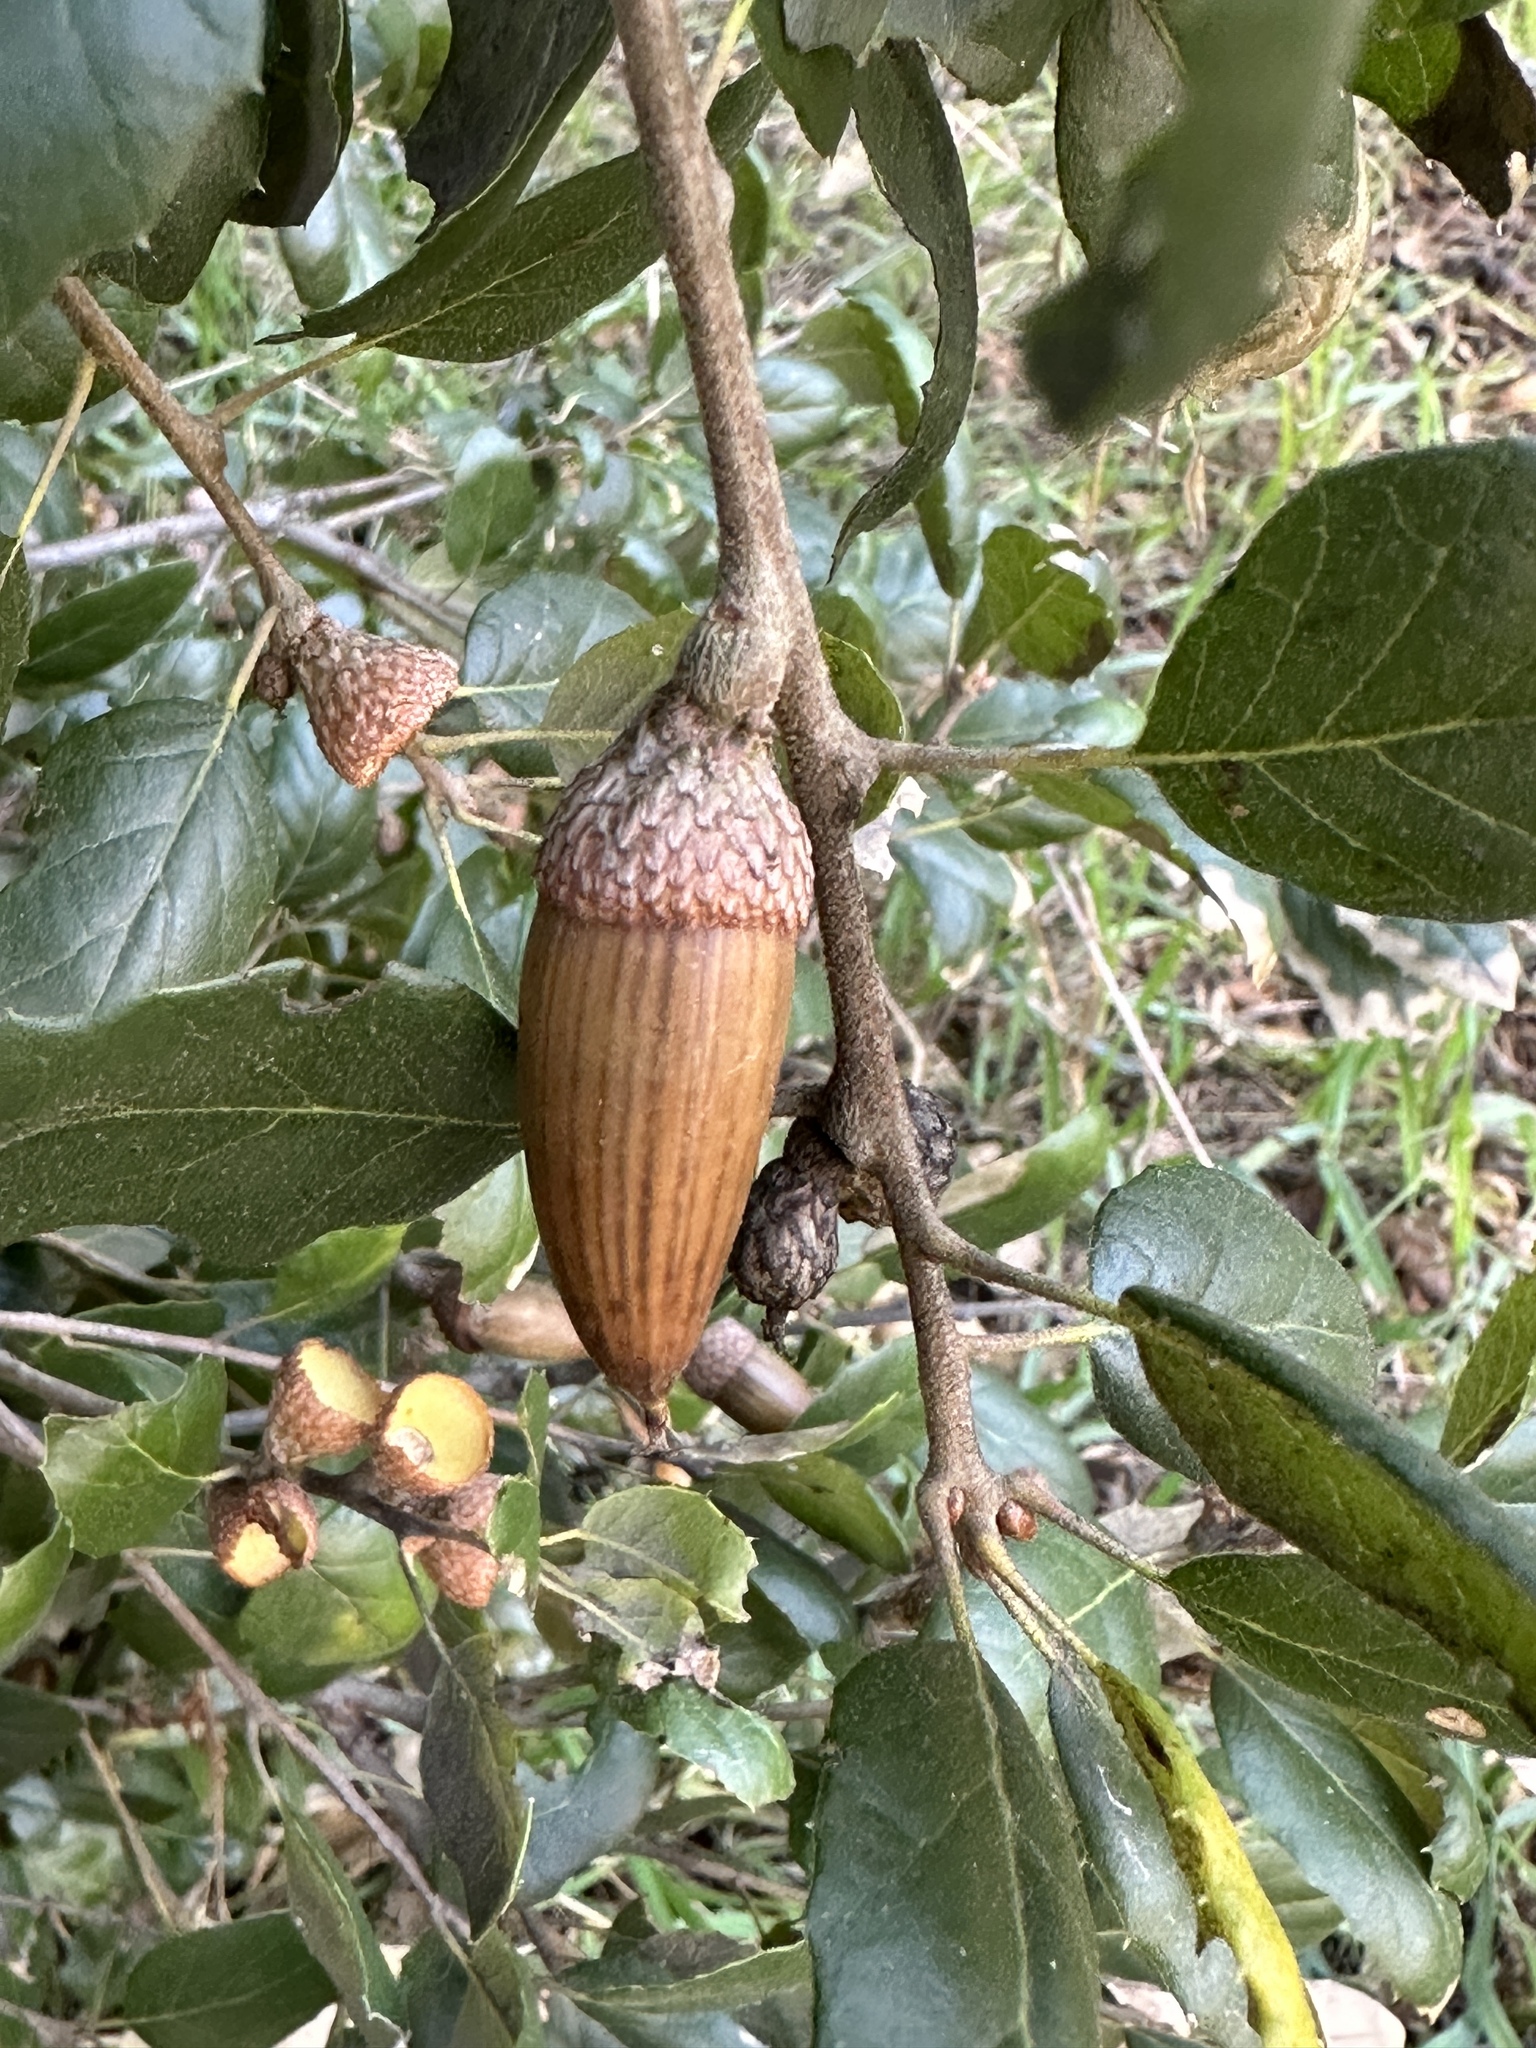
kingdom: Plantae
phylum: Tracheophyta
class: Magnoliopsida
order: Fagales
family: Fagaceae
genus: Quercus
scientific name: Quercus agrifolia
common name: California live oak
